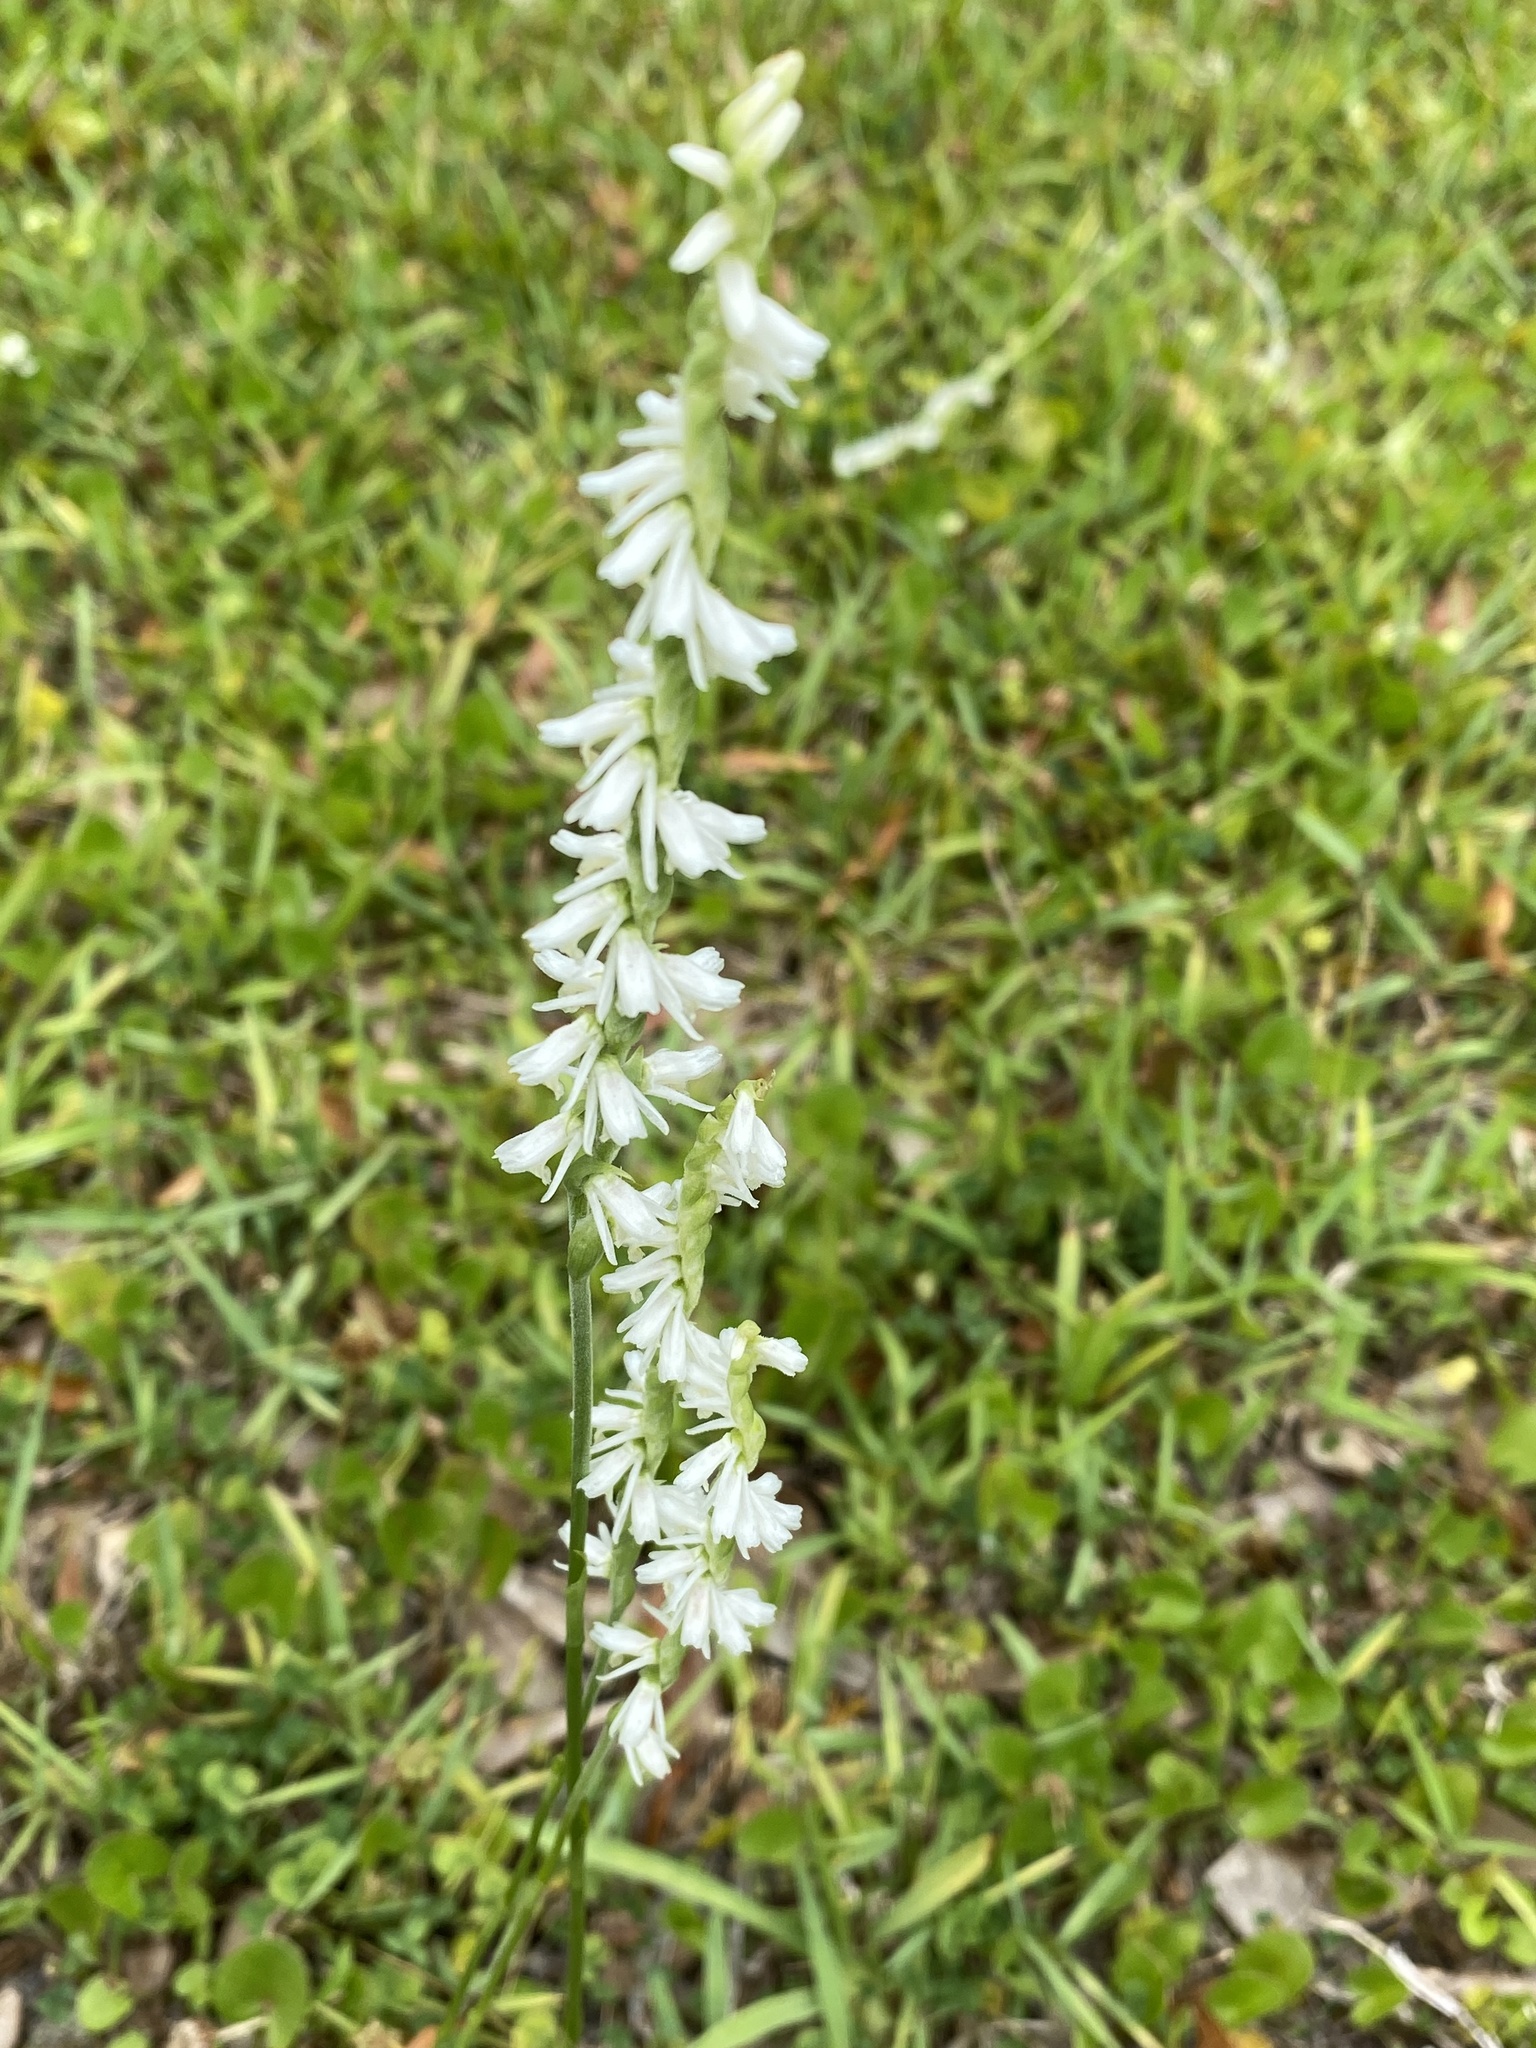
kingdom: Plantae
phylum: Tracheophyta
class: Liliopsida
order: Asparagales
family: Orchidaceae
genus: Spiranthes
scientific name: Spiranthes vernalis
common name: Spring ladies'-tresses
